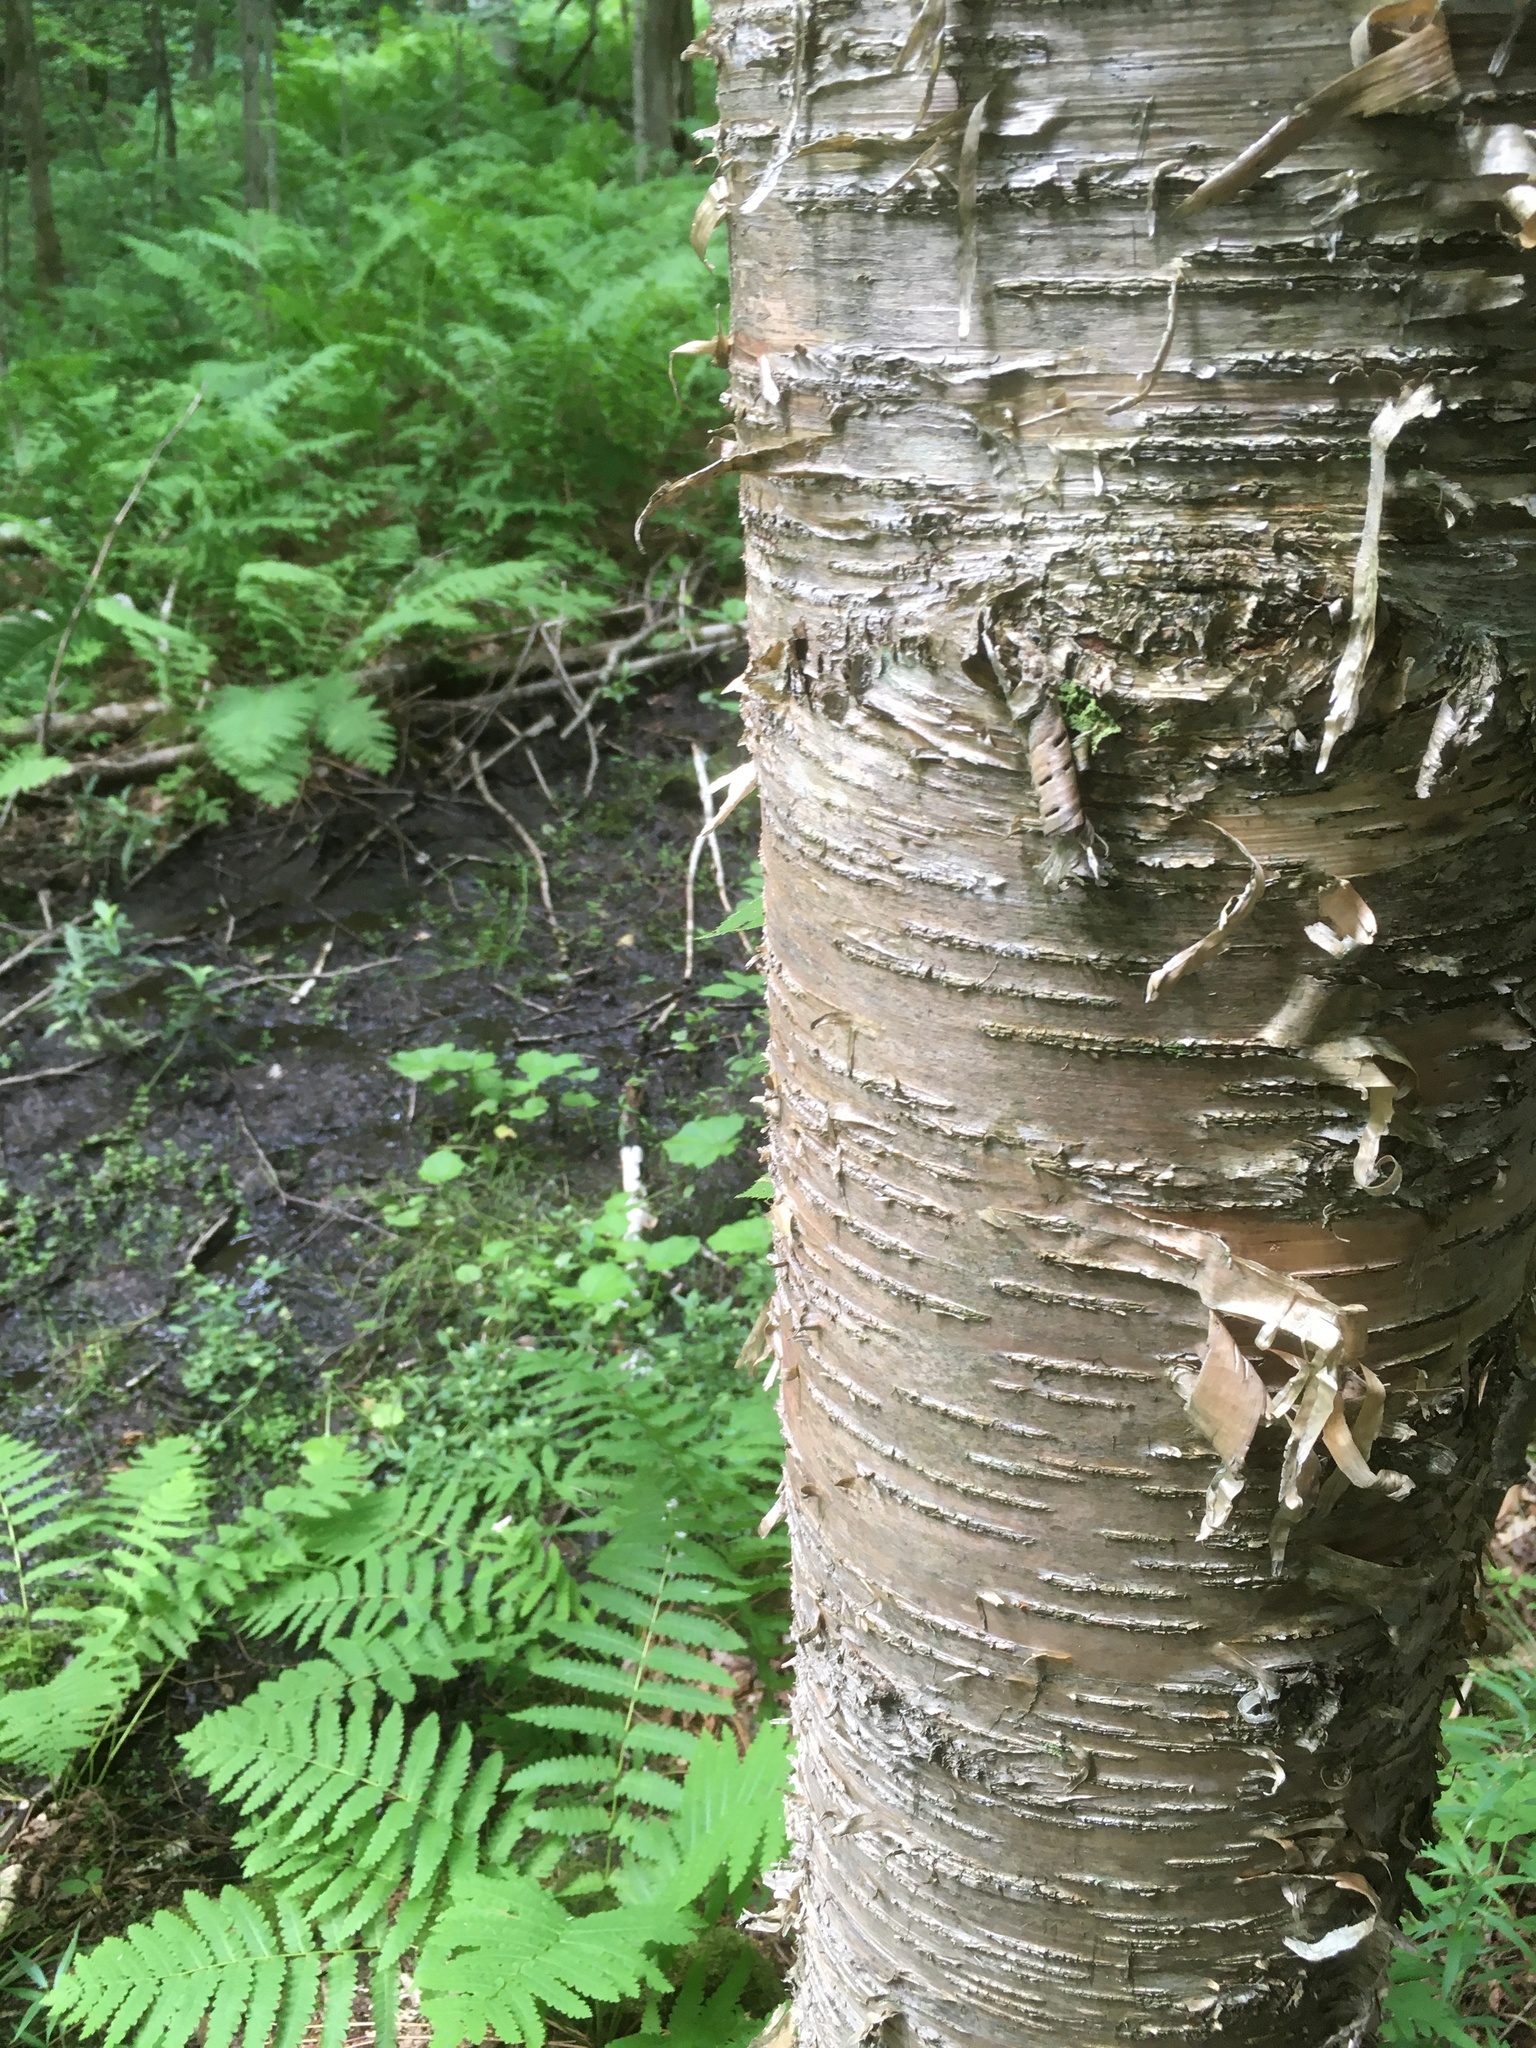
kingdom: Plantae
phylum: Tracheophyta
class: Magnoliopsida
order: Fagales
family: Betulaceae
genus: Betula
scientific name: Betula alleghaniensis
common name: Yellow birch
